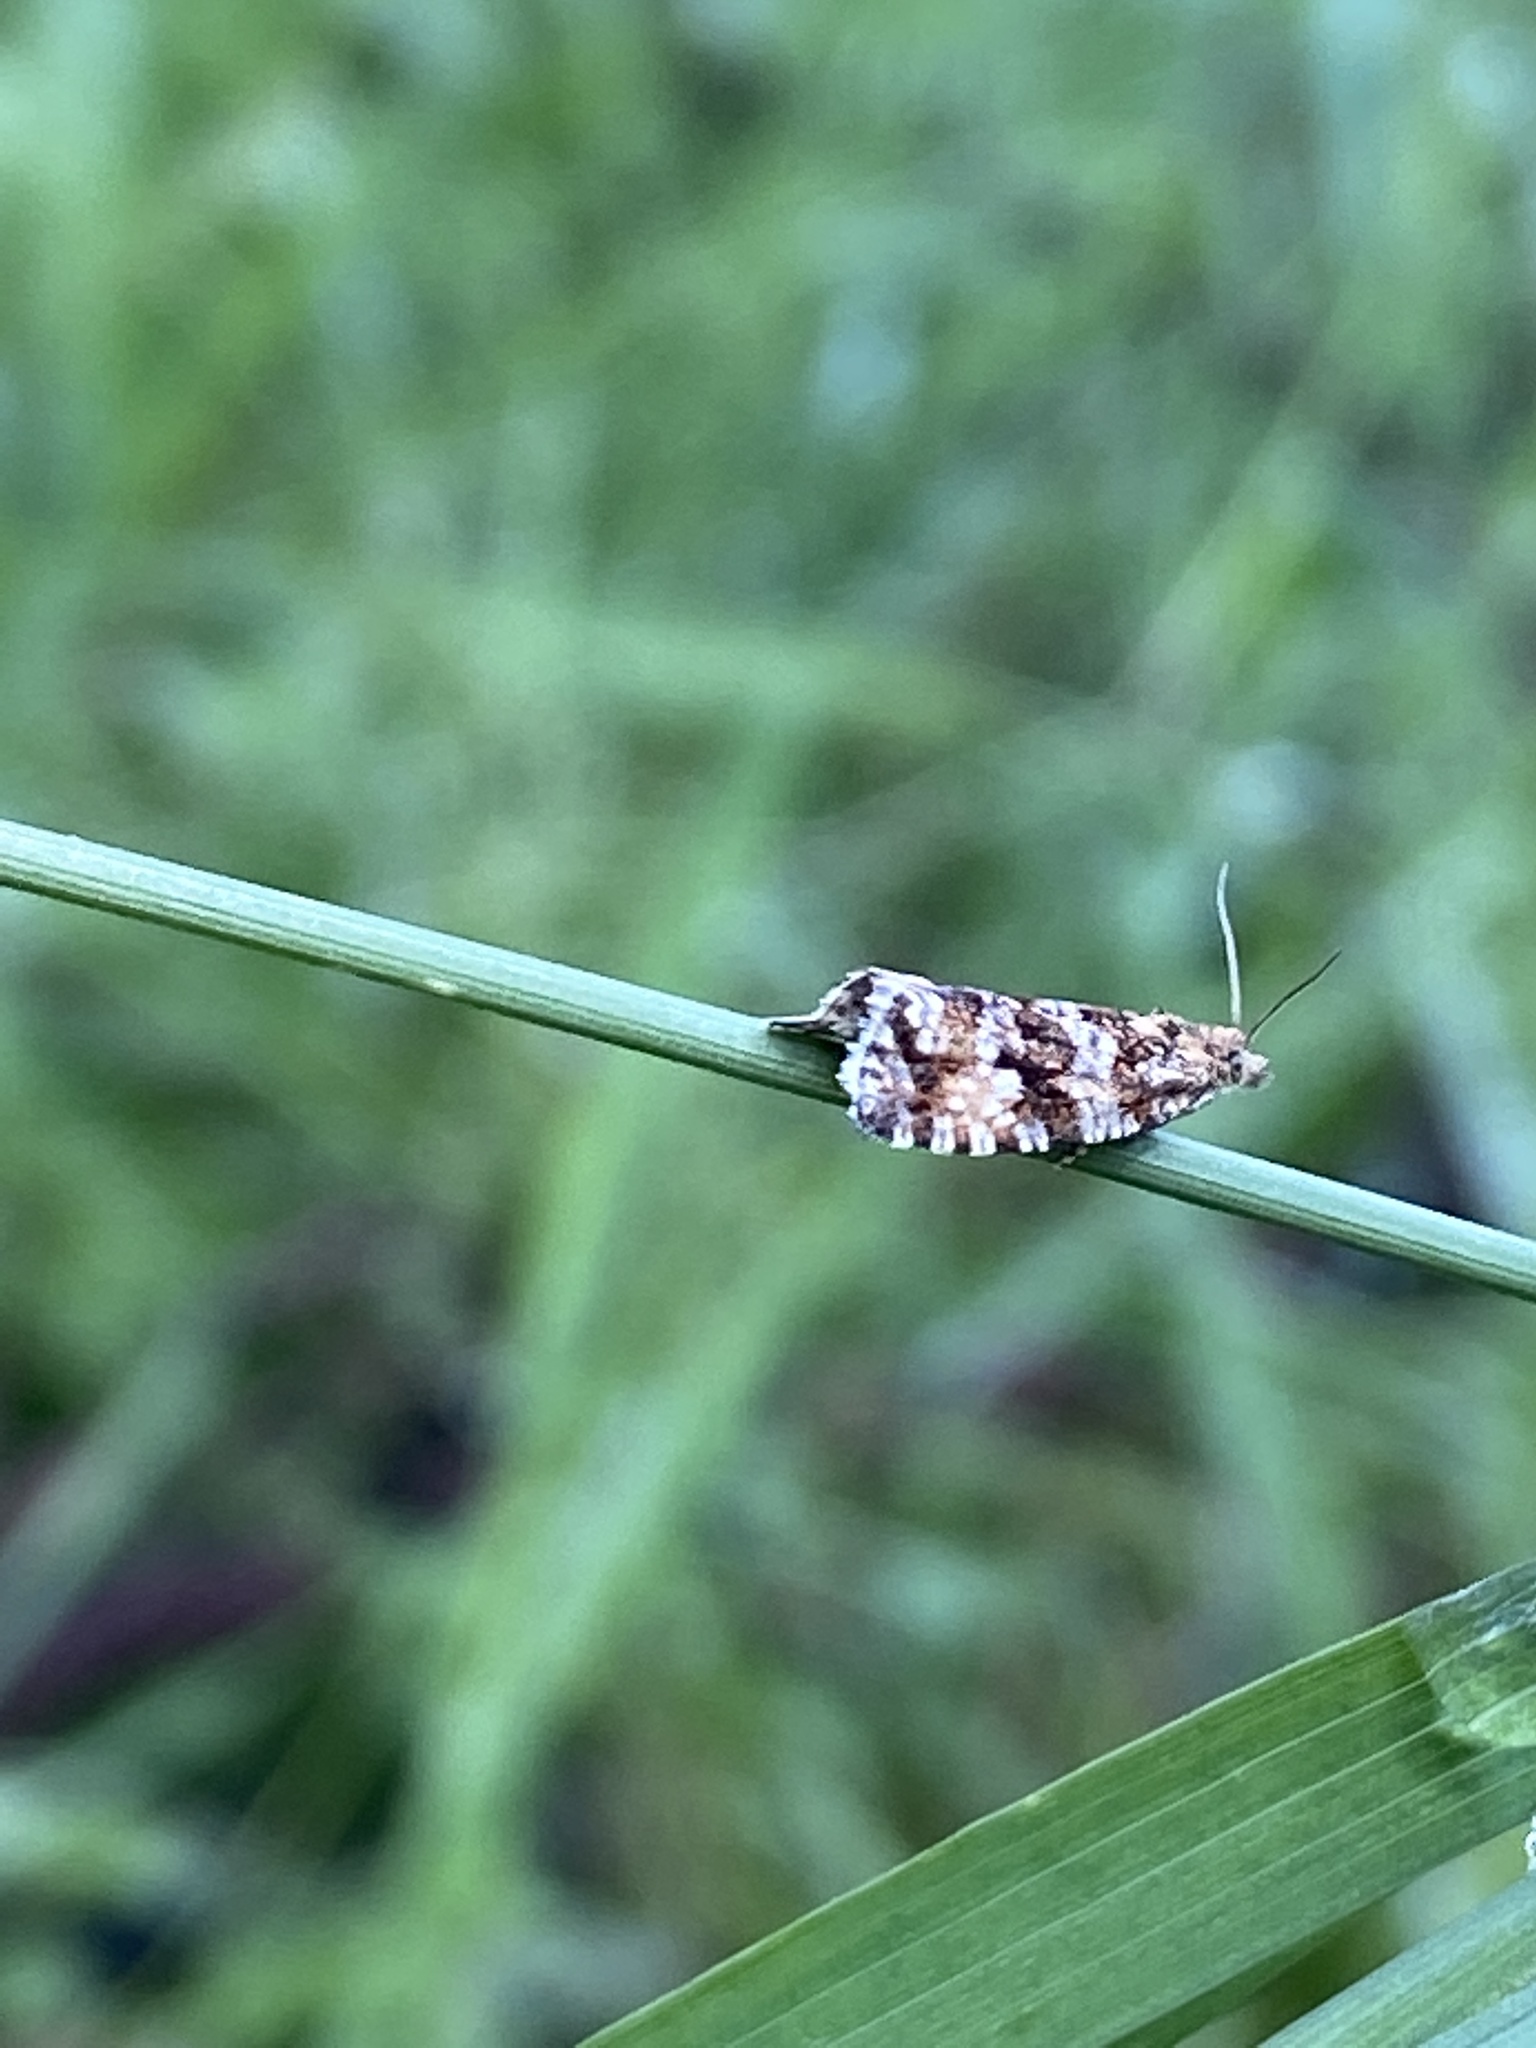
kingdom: Animalia
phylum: Arthropoda
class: Insecta
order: Lepidoptera
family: Tortricidae
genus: Syricoris
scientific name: Syricoris lacunana
